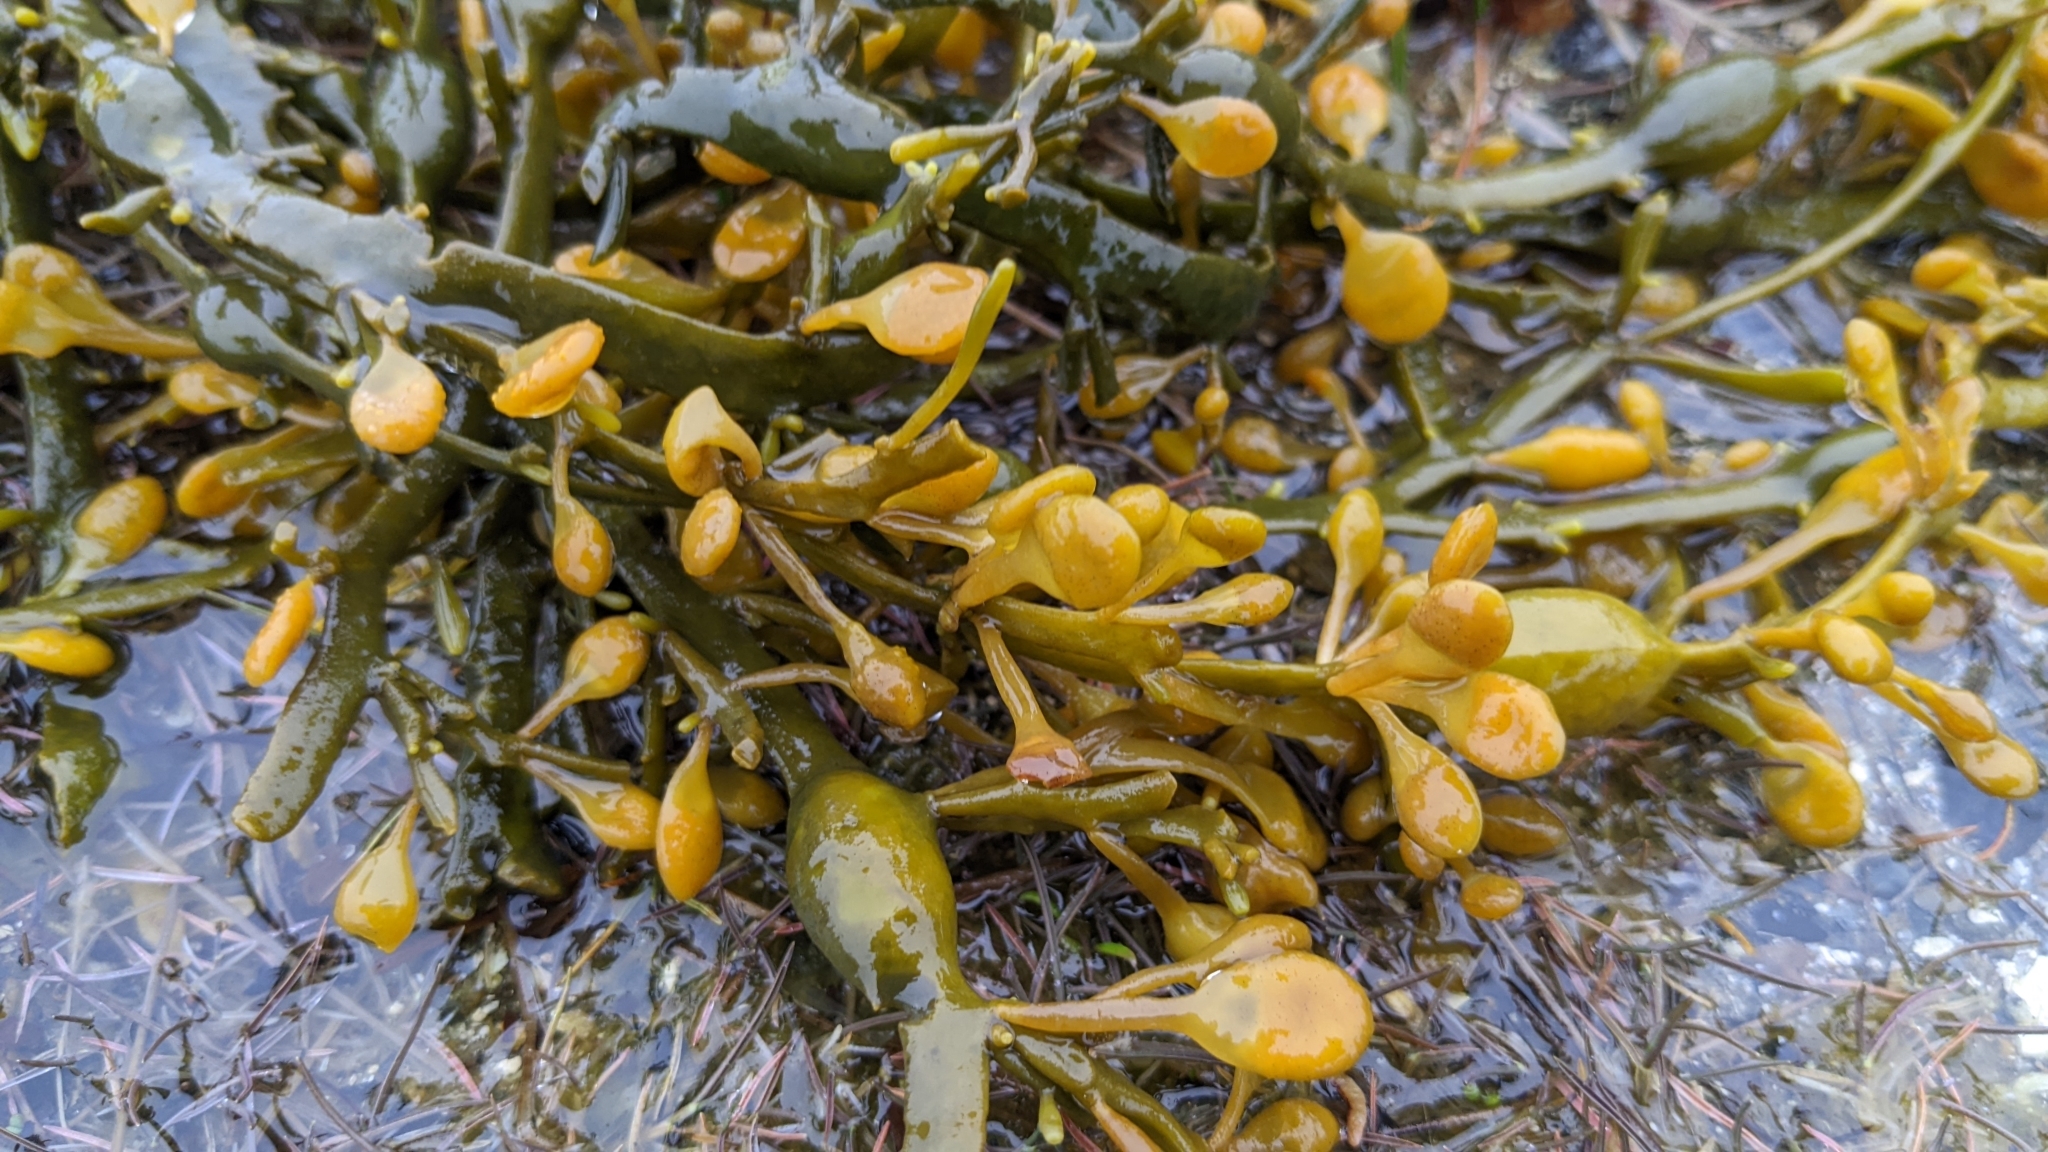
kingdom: Chromista
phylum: Ochrophyta
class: Phaeophyceae
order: Fucales
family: Fucaceae
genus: Ascophyllum
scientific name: Ascophyllum nodosum
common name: Knotted wrack
